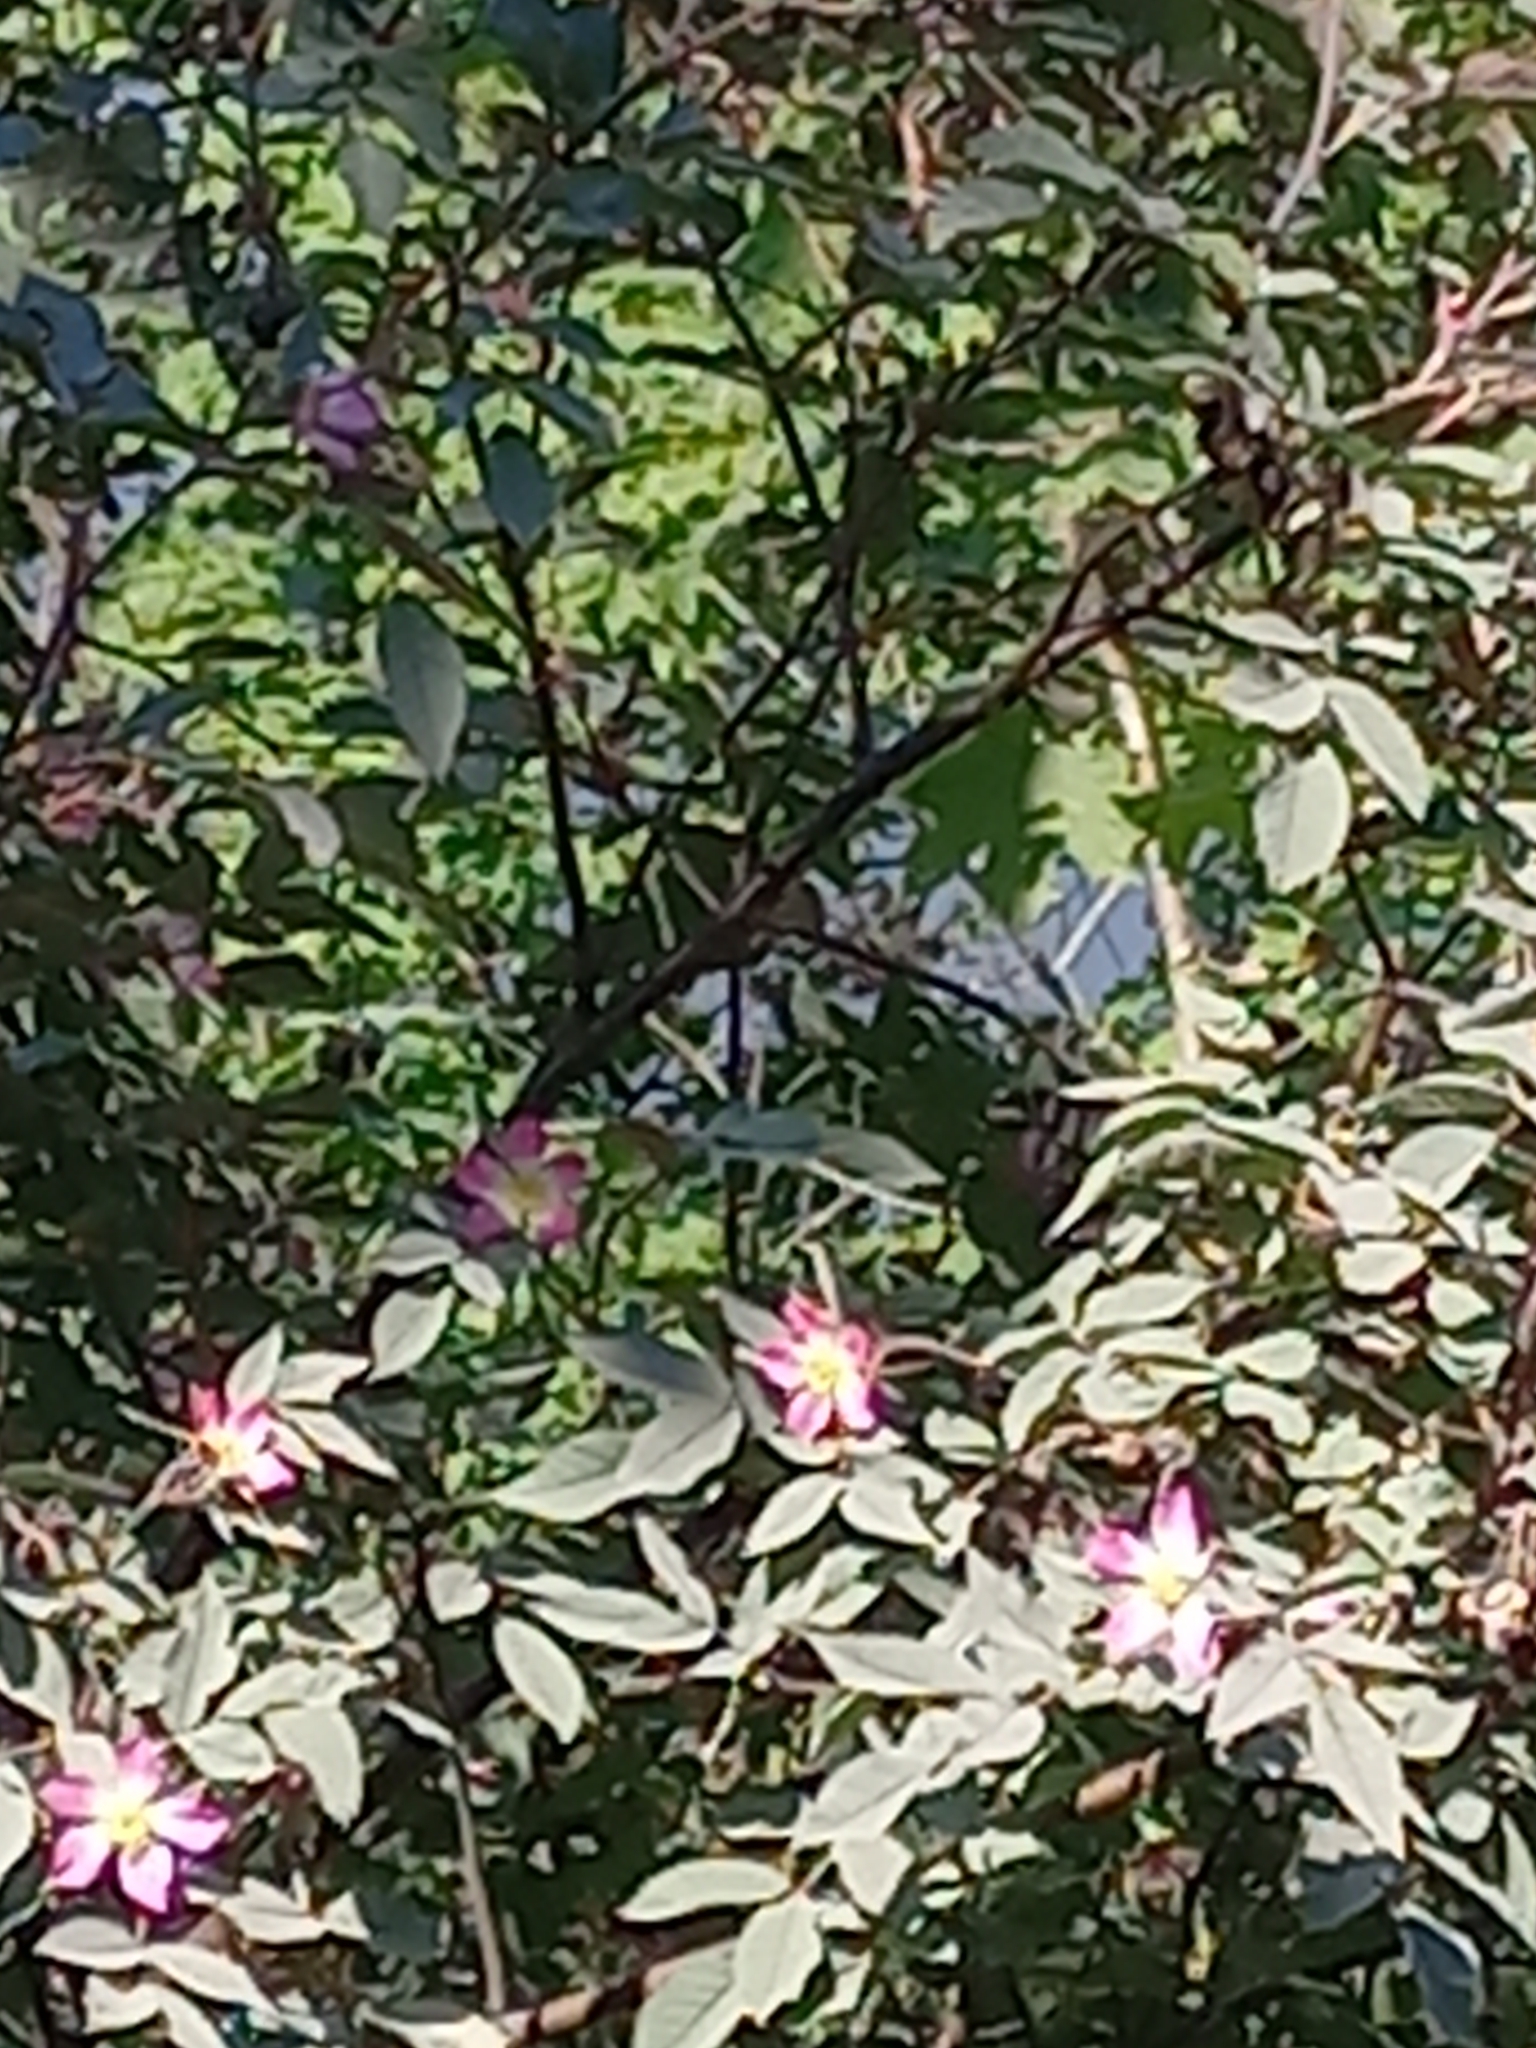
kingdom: Plantae
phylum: Tracheophyta
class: Magnoliopsida
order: Rosales
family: Rosaceae
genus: Rosa
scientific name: Rosa glauca
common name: Redleaf rose
